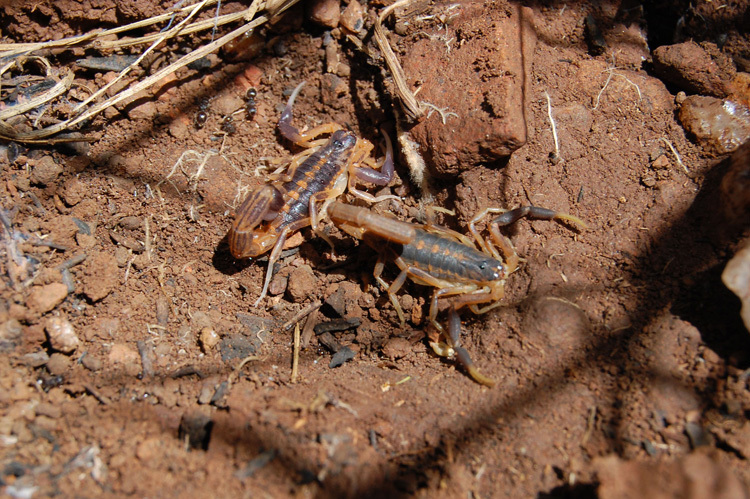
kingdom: Animalia
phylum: Arthropoda
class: Arachnida
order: Scorpiones
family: Buthidae
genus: Uroplectes
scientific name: Uroplectes triangulifer
